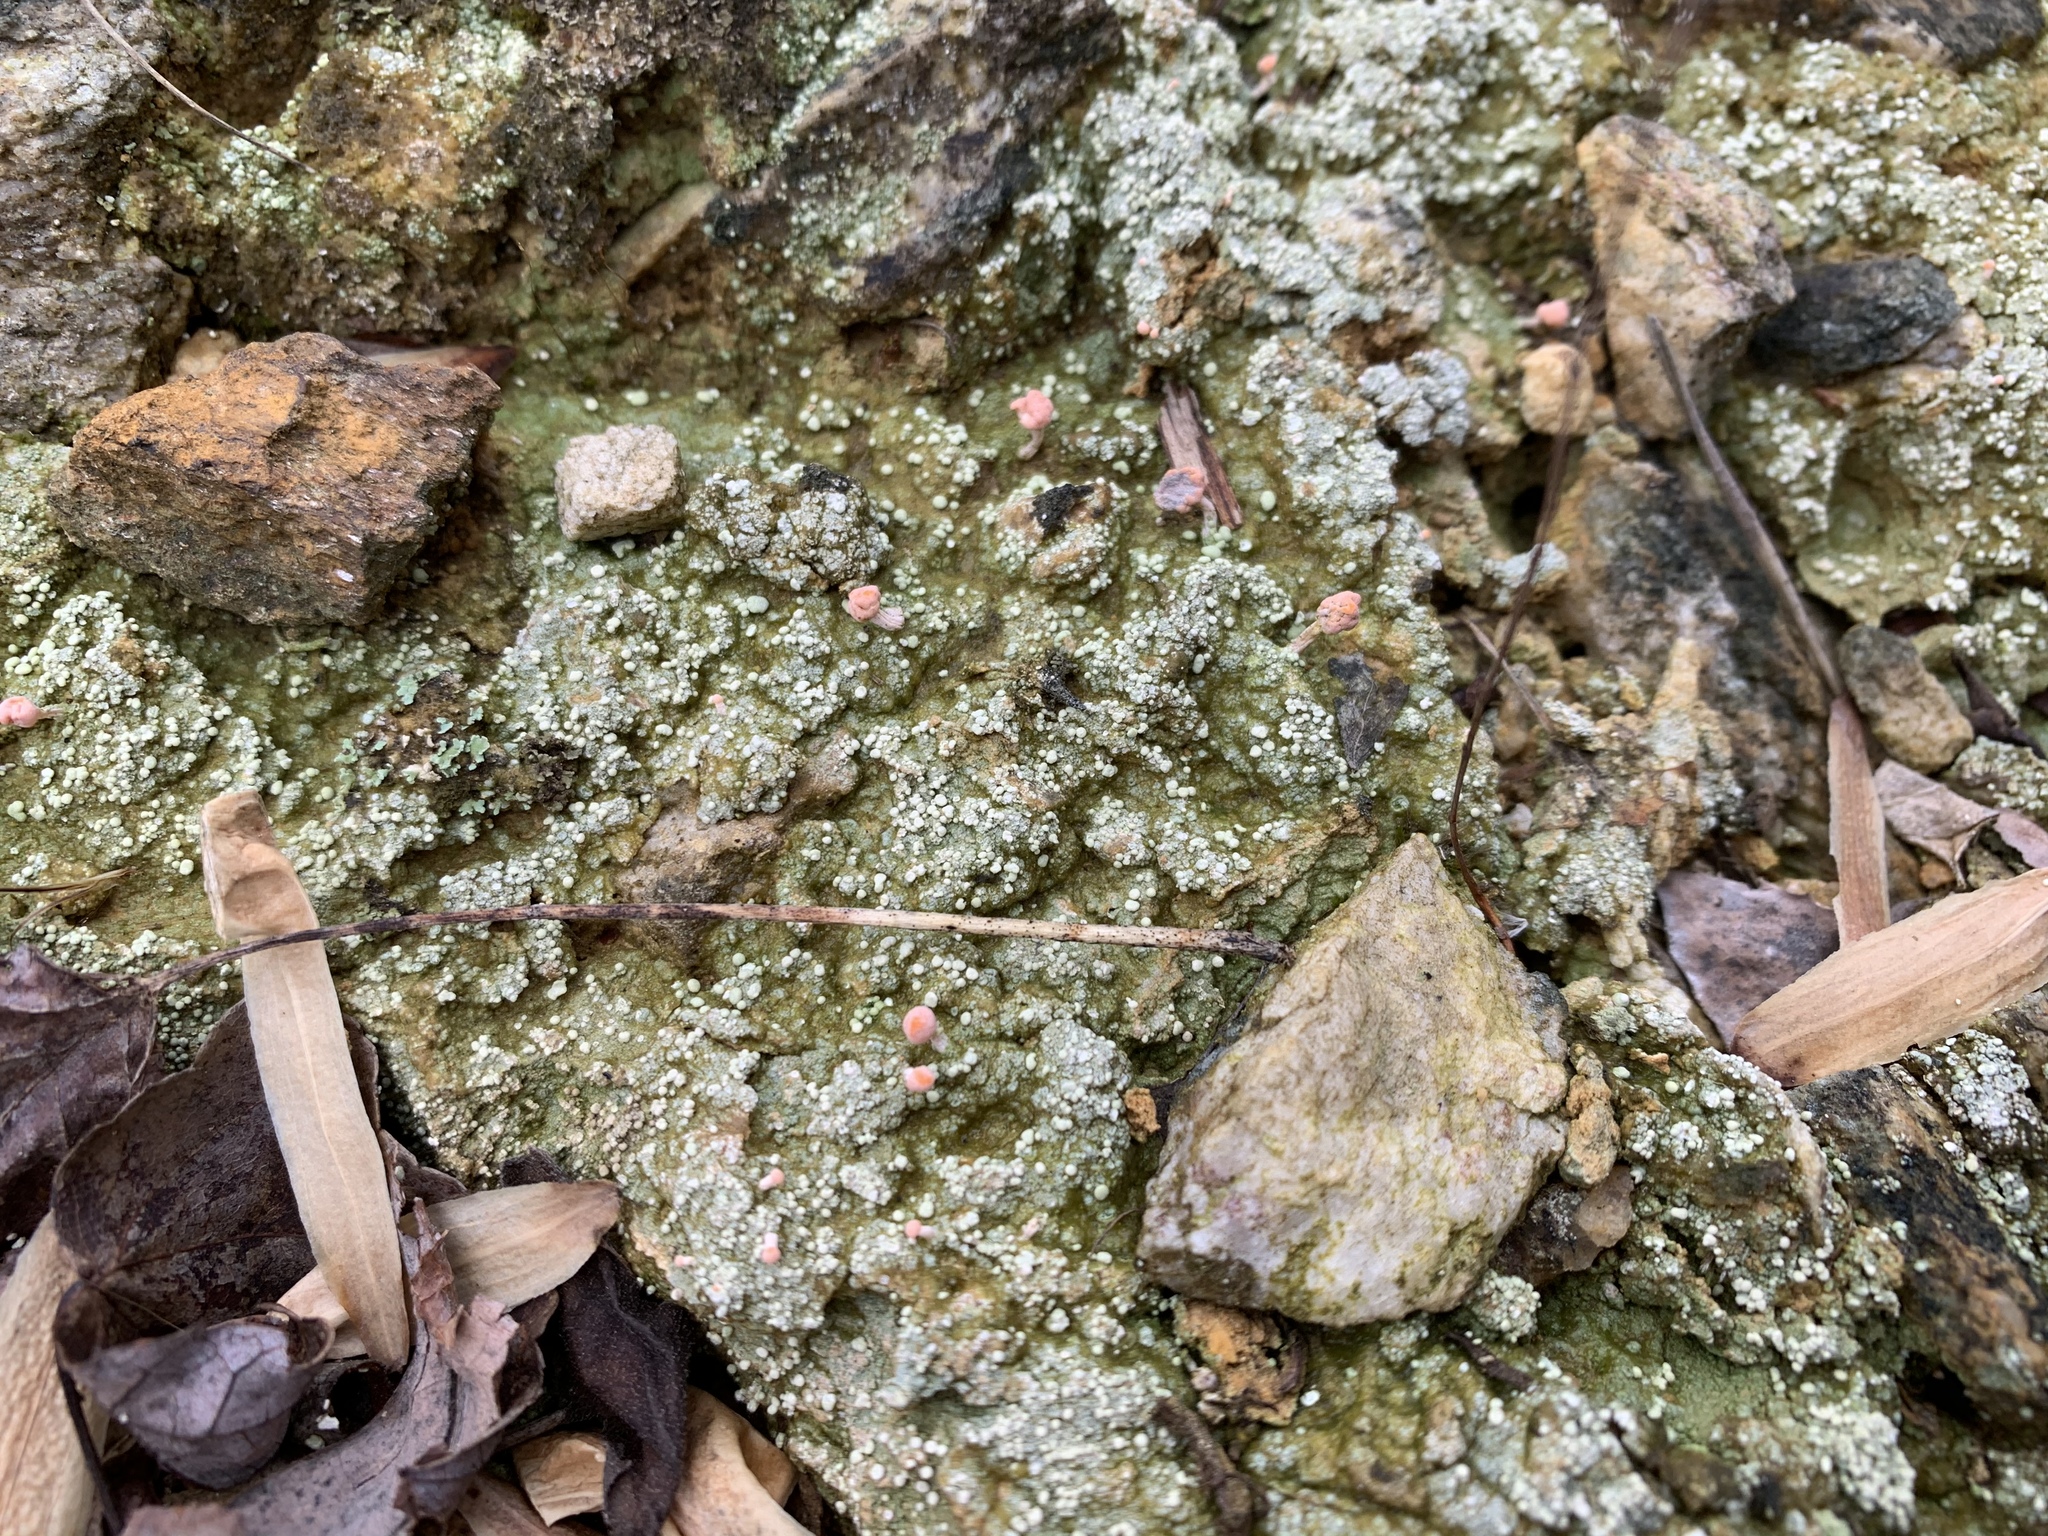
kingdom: Fungi
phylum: Ascomycota
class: Lecanoromycetes
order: Pertusariales
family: Icmadophilaceae
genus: Dibaeis
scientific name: Dibaeis baeomyces
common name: Pink earth lichen
